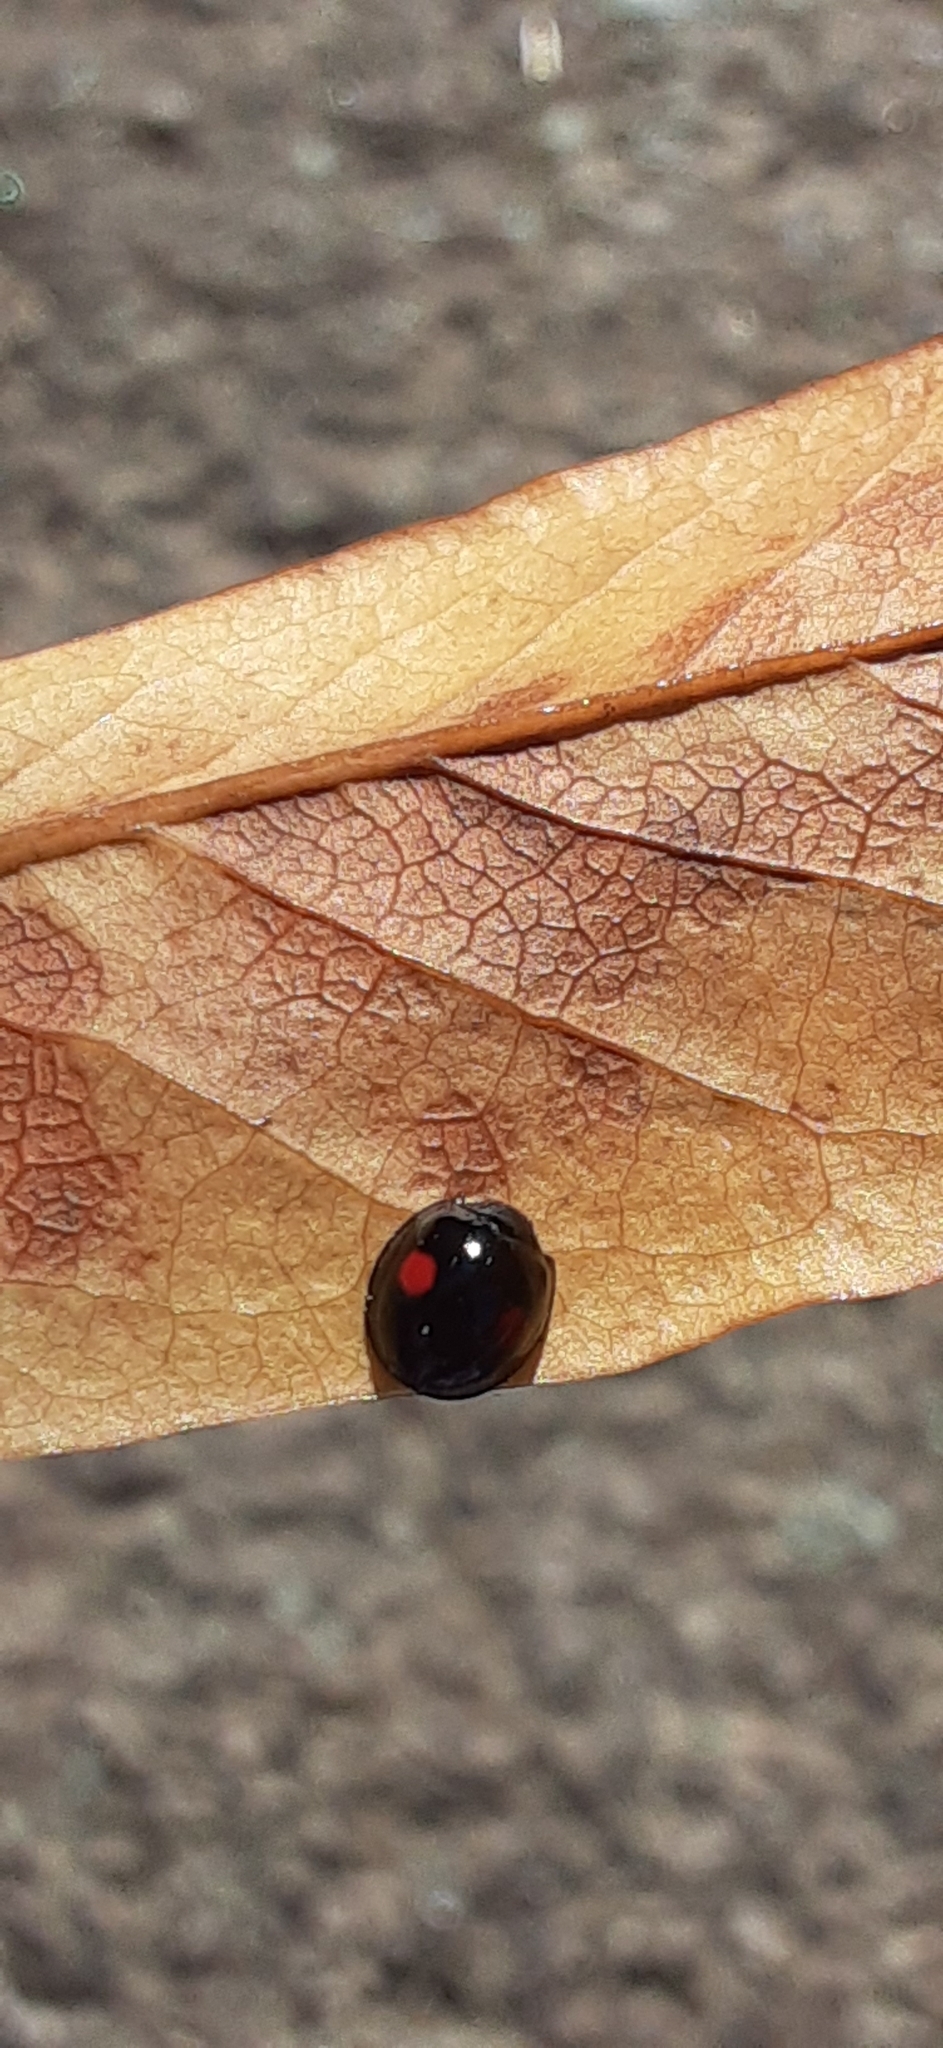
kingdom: Animalia
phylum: Arthropoda
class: Insecta
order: Coleoptera
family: Coccinellidae
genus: Chilocorus
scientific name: Chilocorus stigma
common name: Twicestabbed lady beetle
